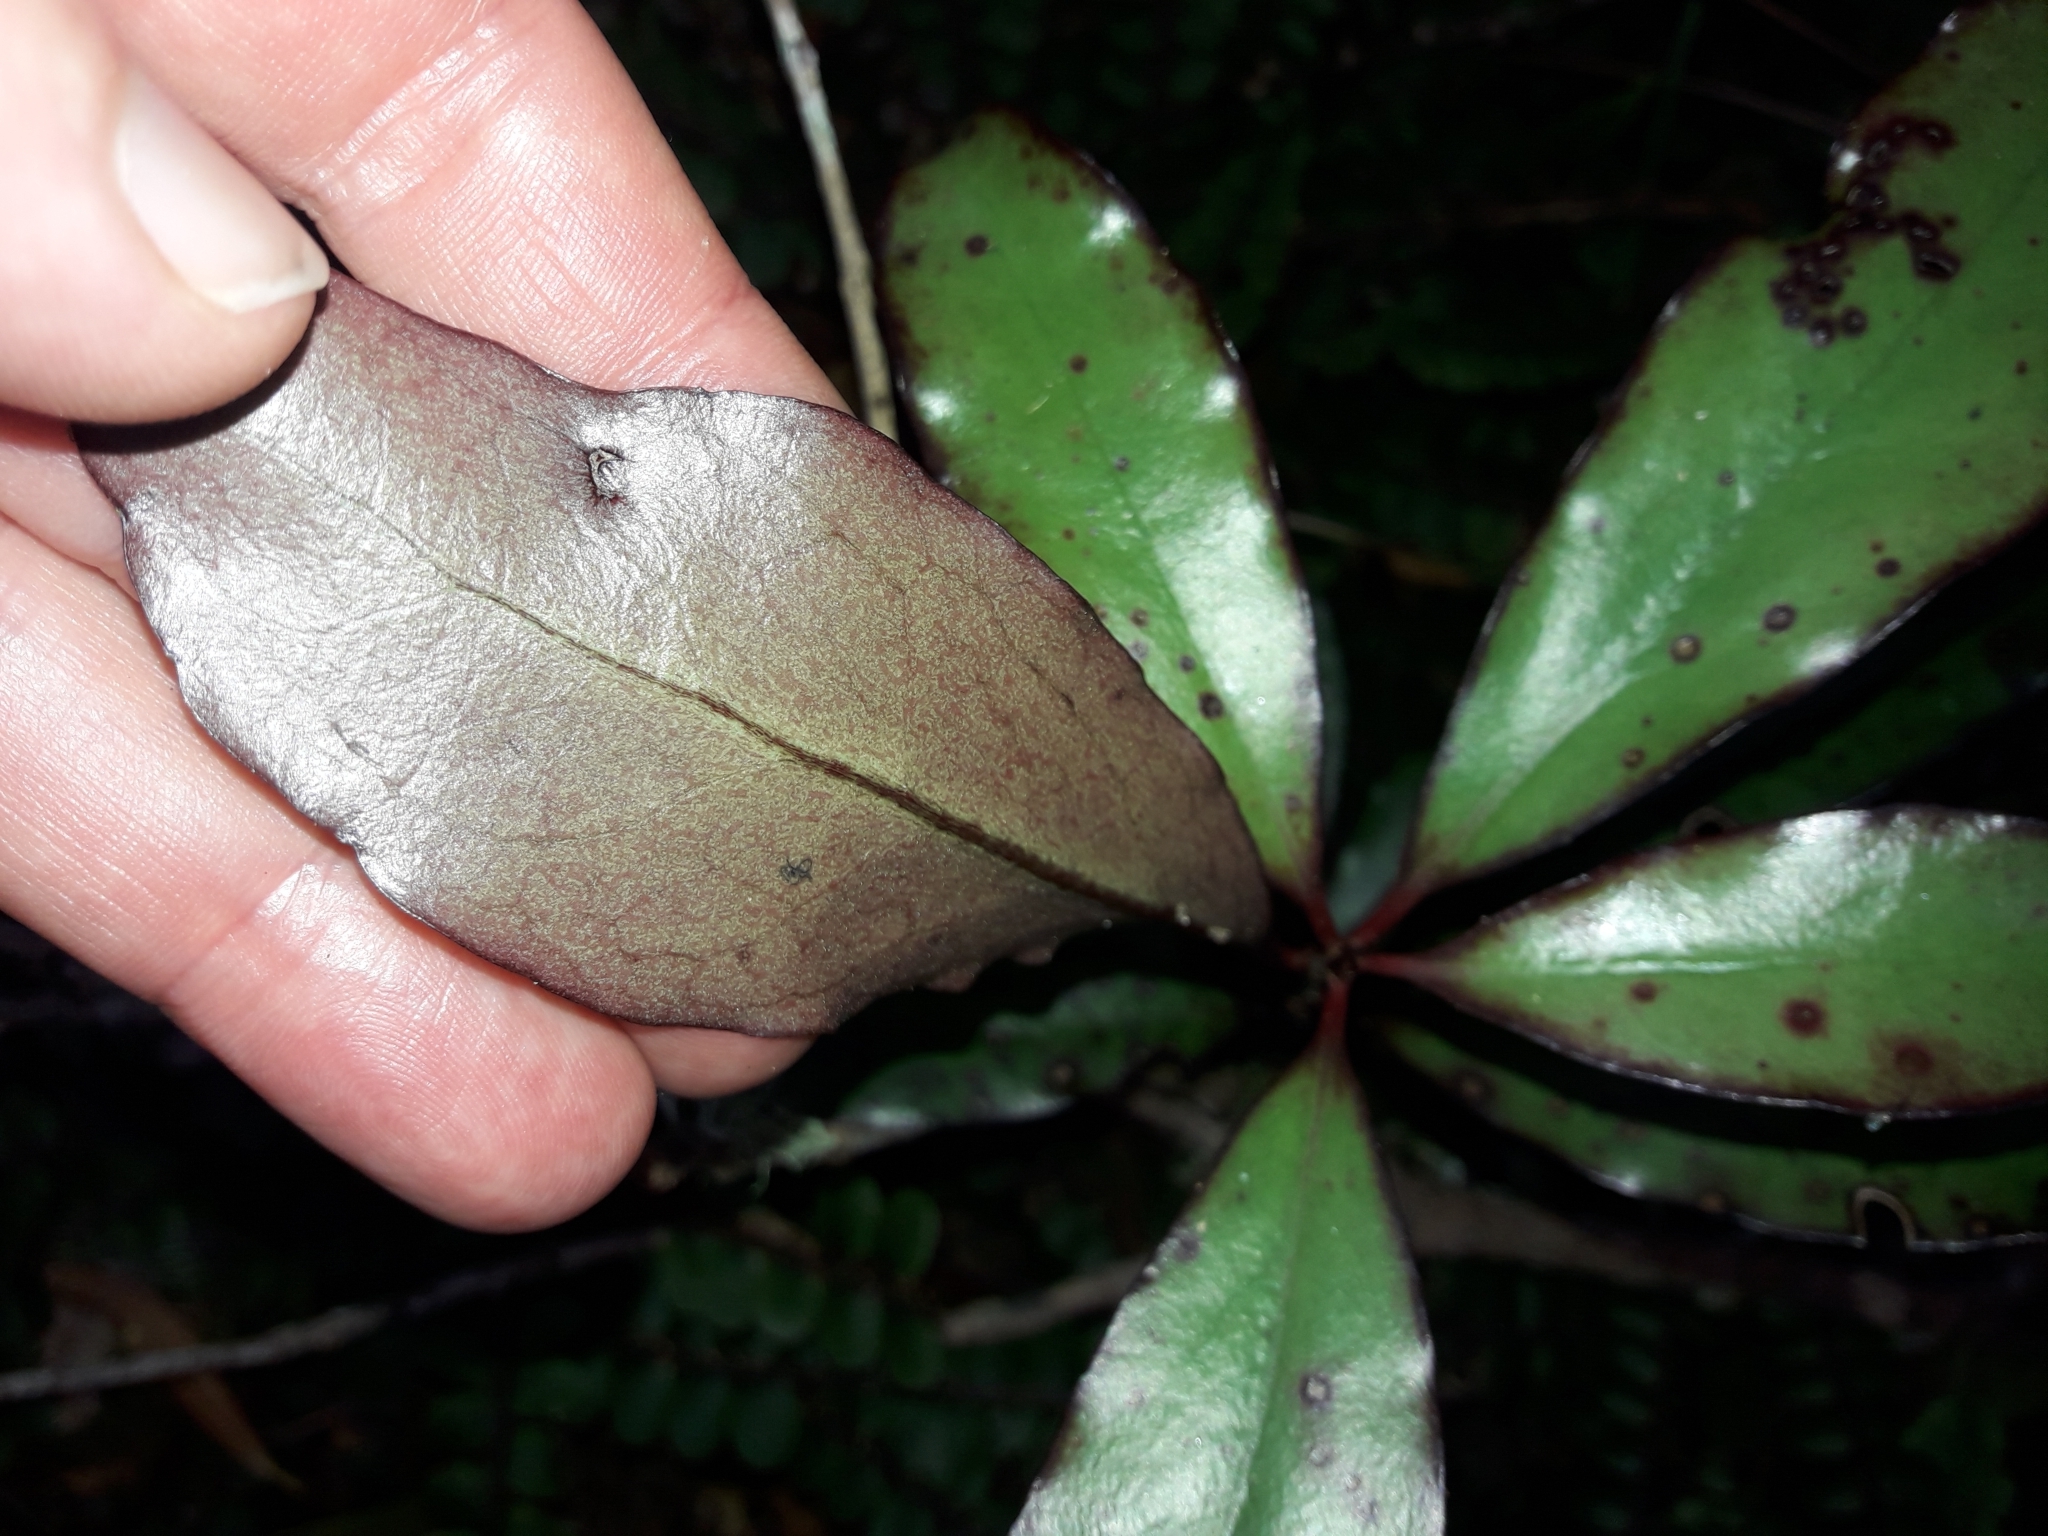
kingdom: Plantae
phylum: Tracheophyta
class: Magnoliopsida
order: Asterales
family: Alseuosmiaceae
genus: Alseuosmia
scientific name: Alseuosmia pusilla
